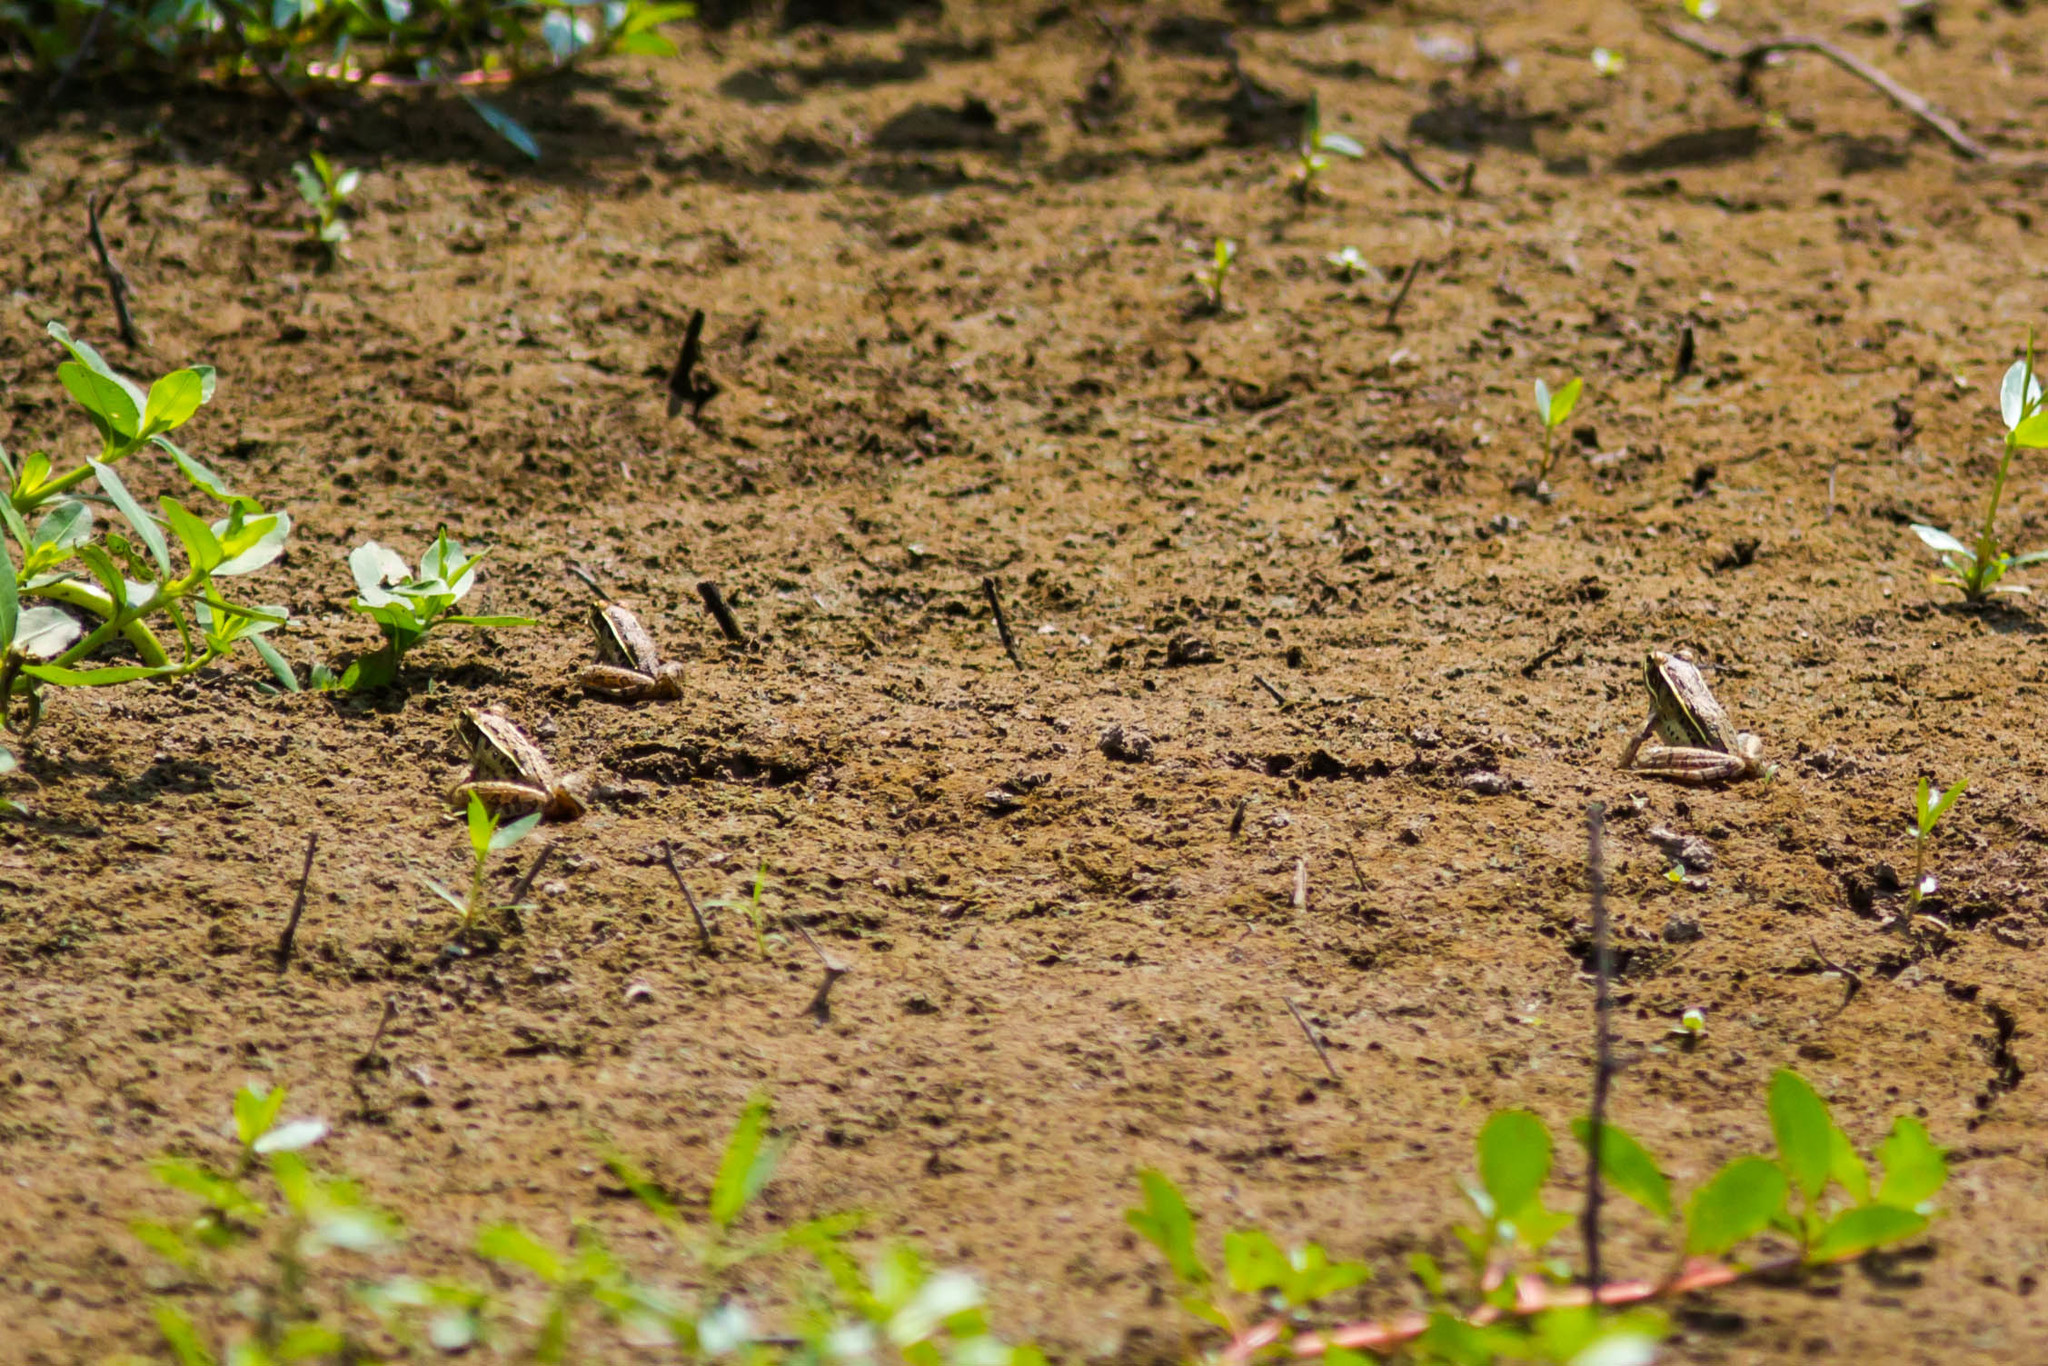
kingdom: Animalia
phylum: Chordata
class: Amphibia
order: Anura
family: Ranidae
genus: Lithobates
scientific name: Lithobates sphenocephalus
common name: Southern leopard frog
